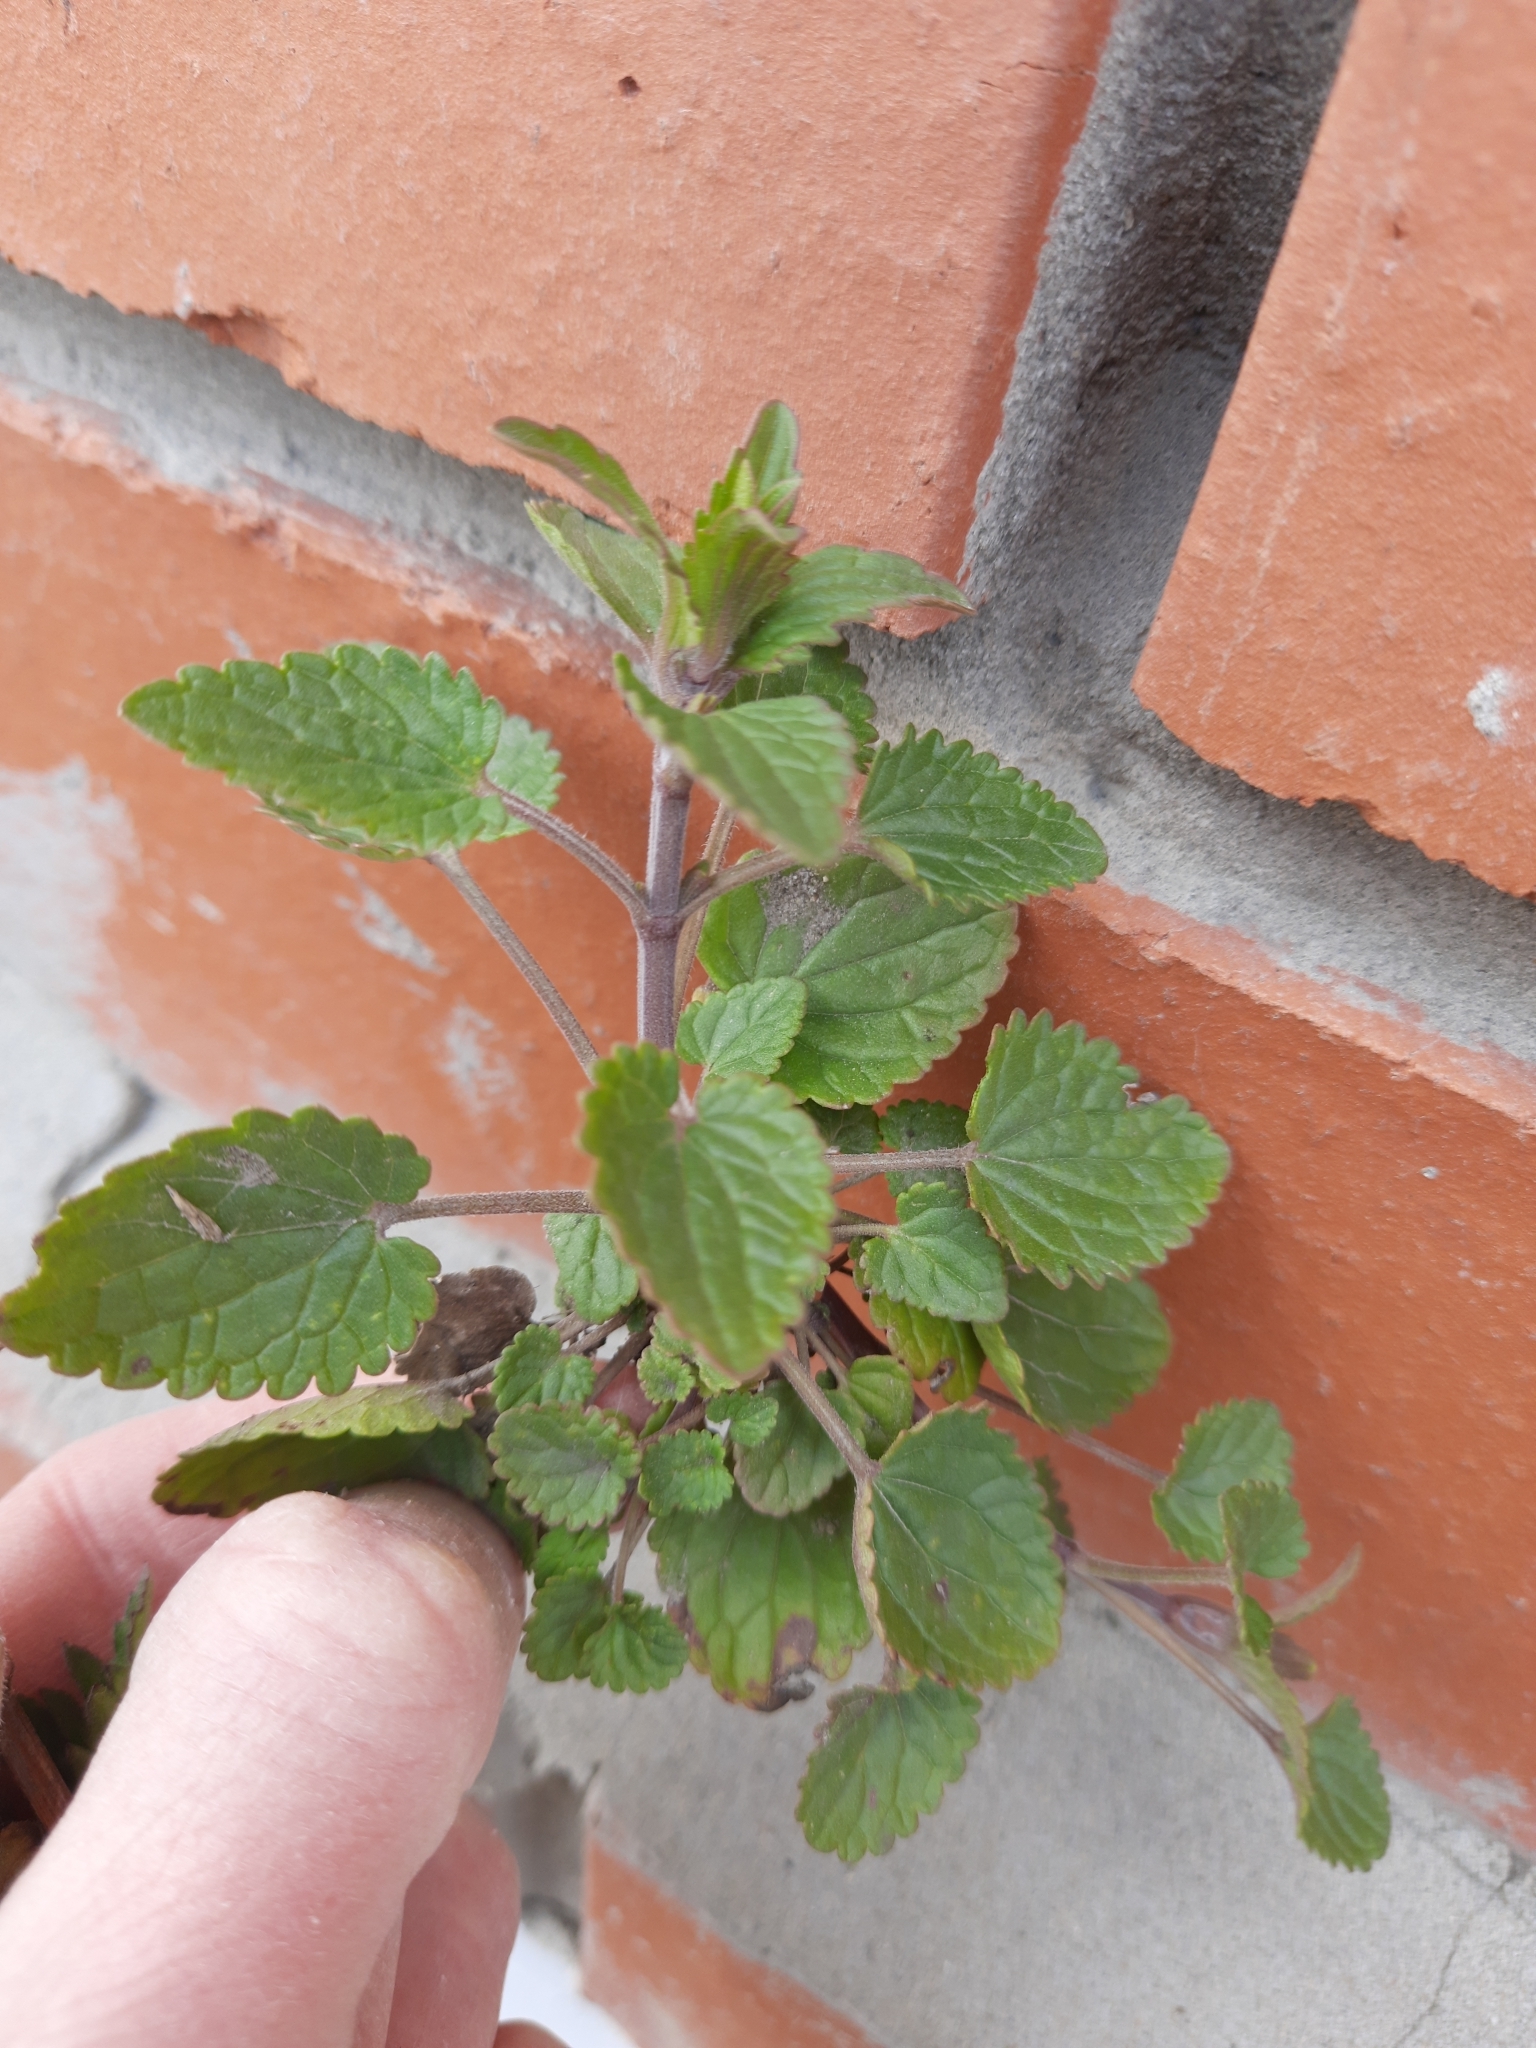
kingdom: Plantae
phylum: Tracheophyta
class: Magnoliopsida
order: Lamiales
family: Lamiaceae
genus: Dracocephalum
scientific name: Dracocephalum thymiflorum
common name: Thymeleaf dragonhead
